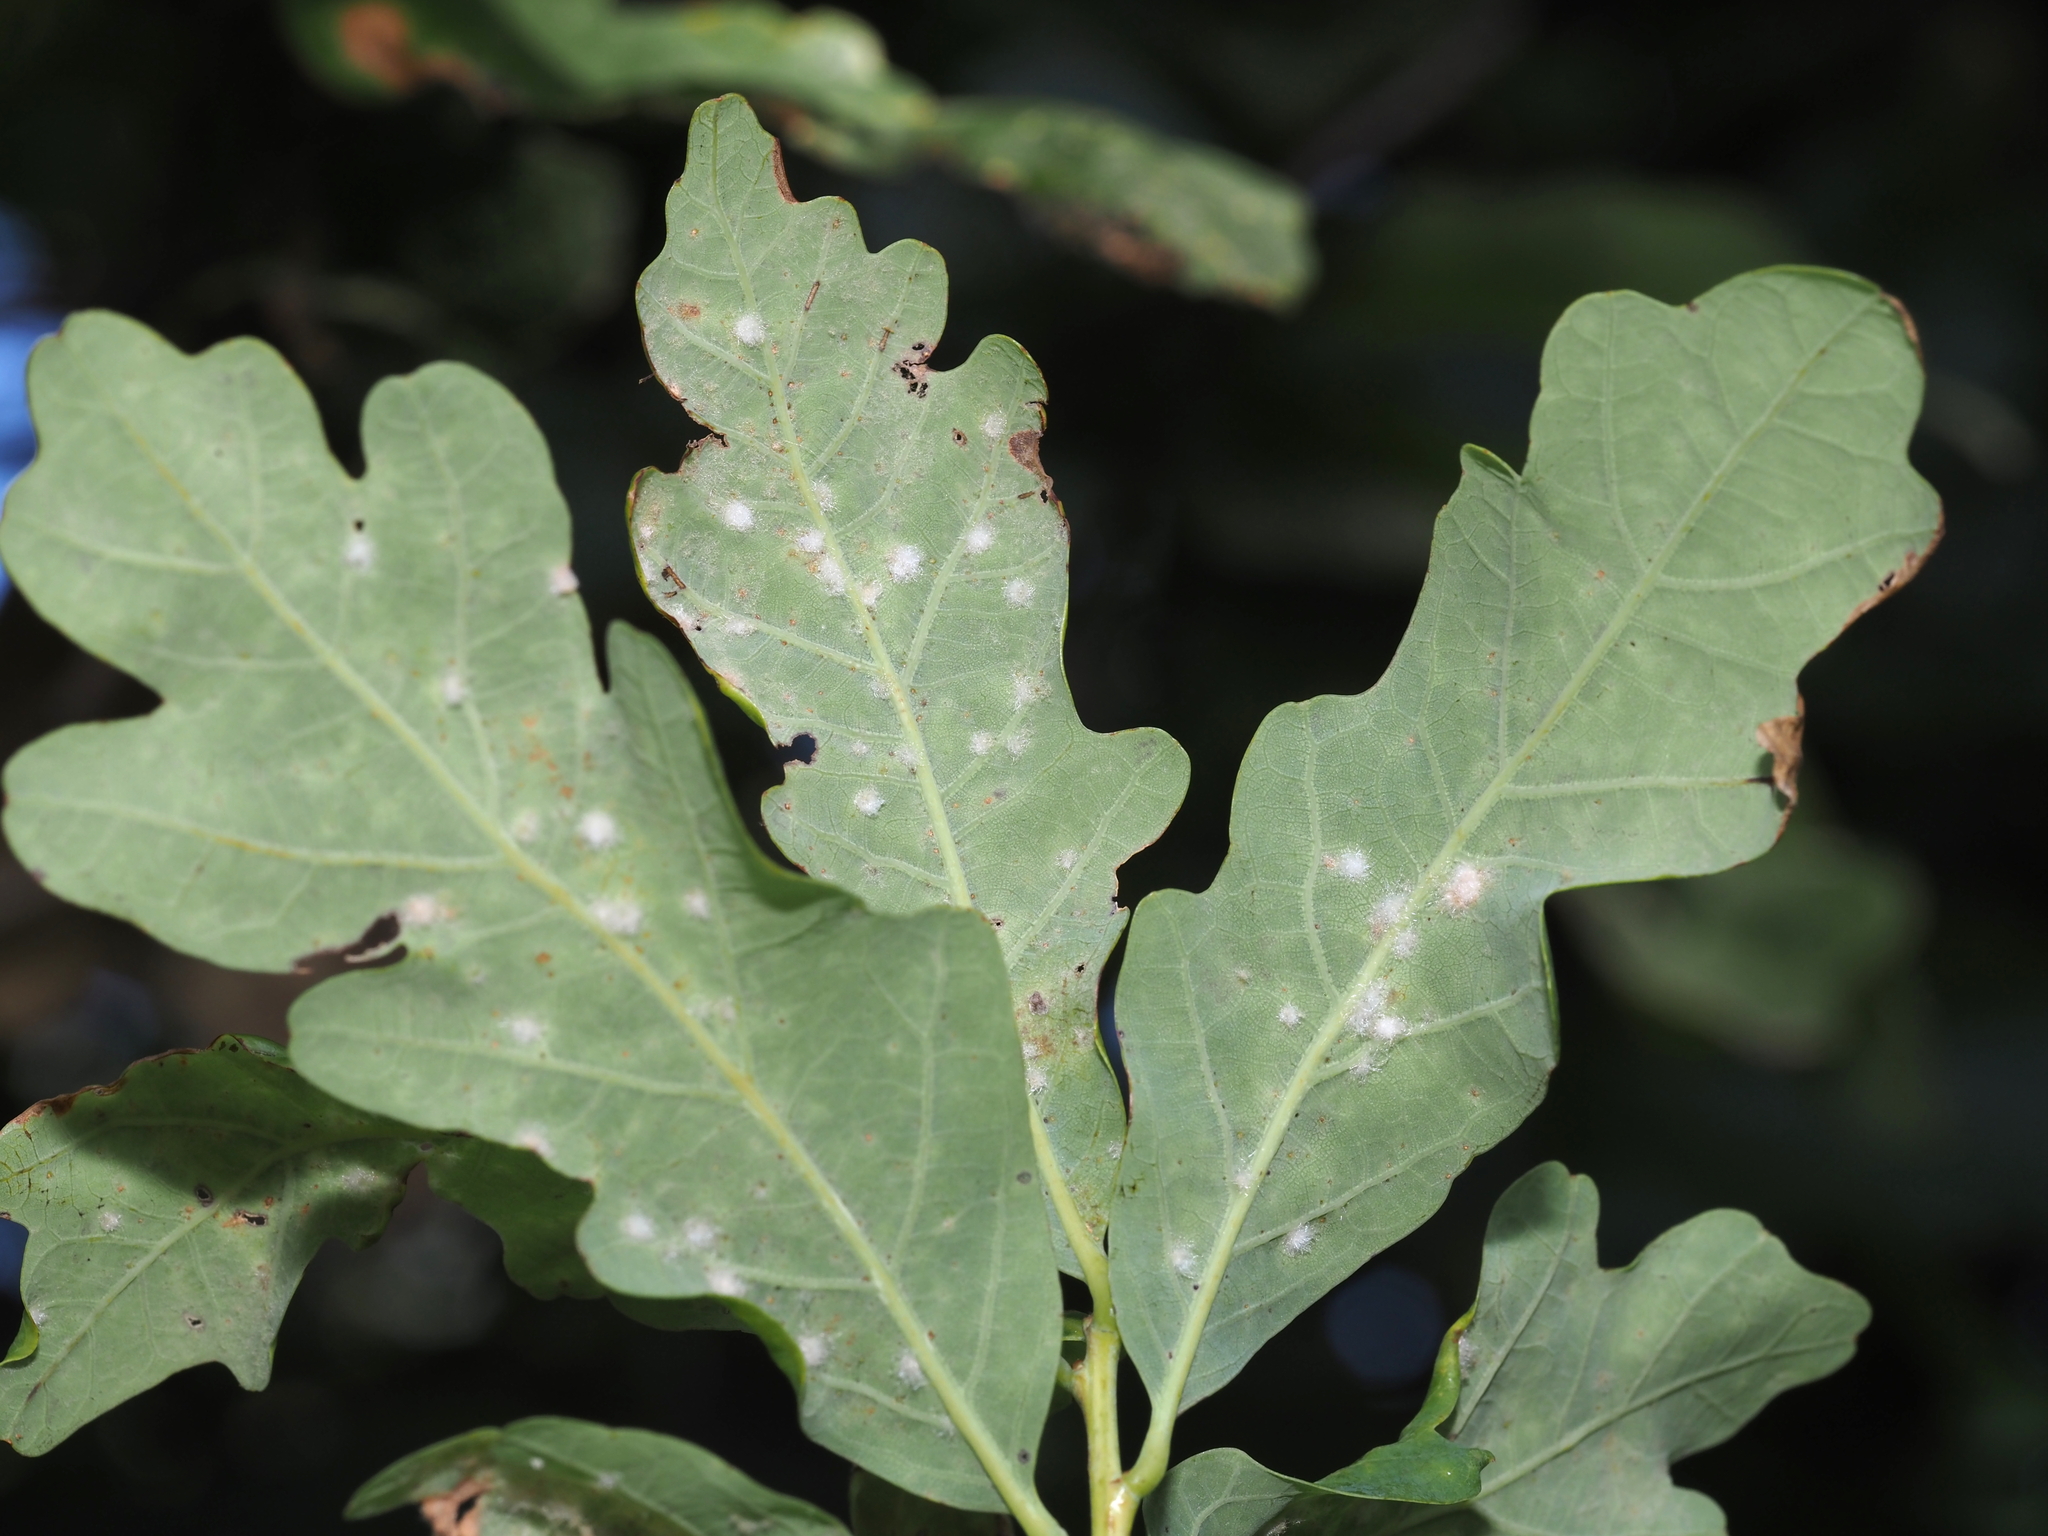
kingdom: Animalia
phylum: Arthropoda
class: Insecta
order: Hymenoptera
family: Cynipidae
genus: Neuroterus
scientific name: Neuroterus quercusverrucarum
